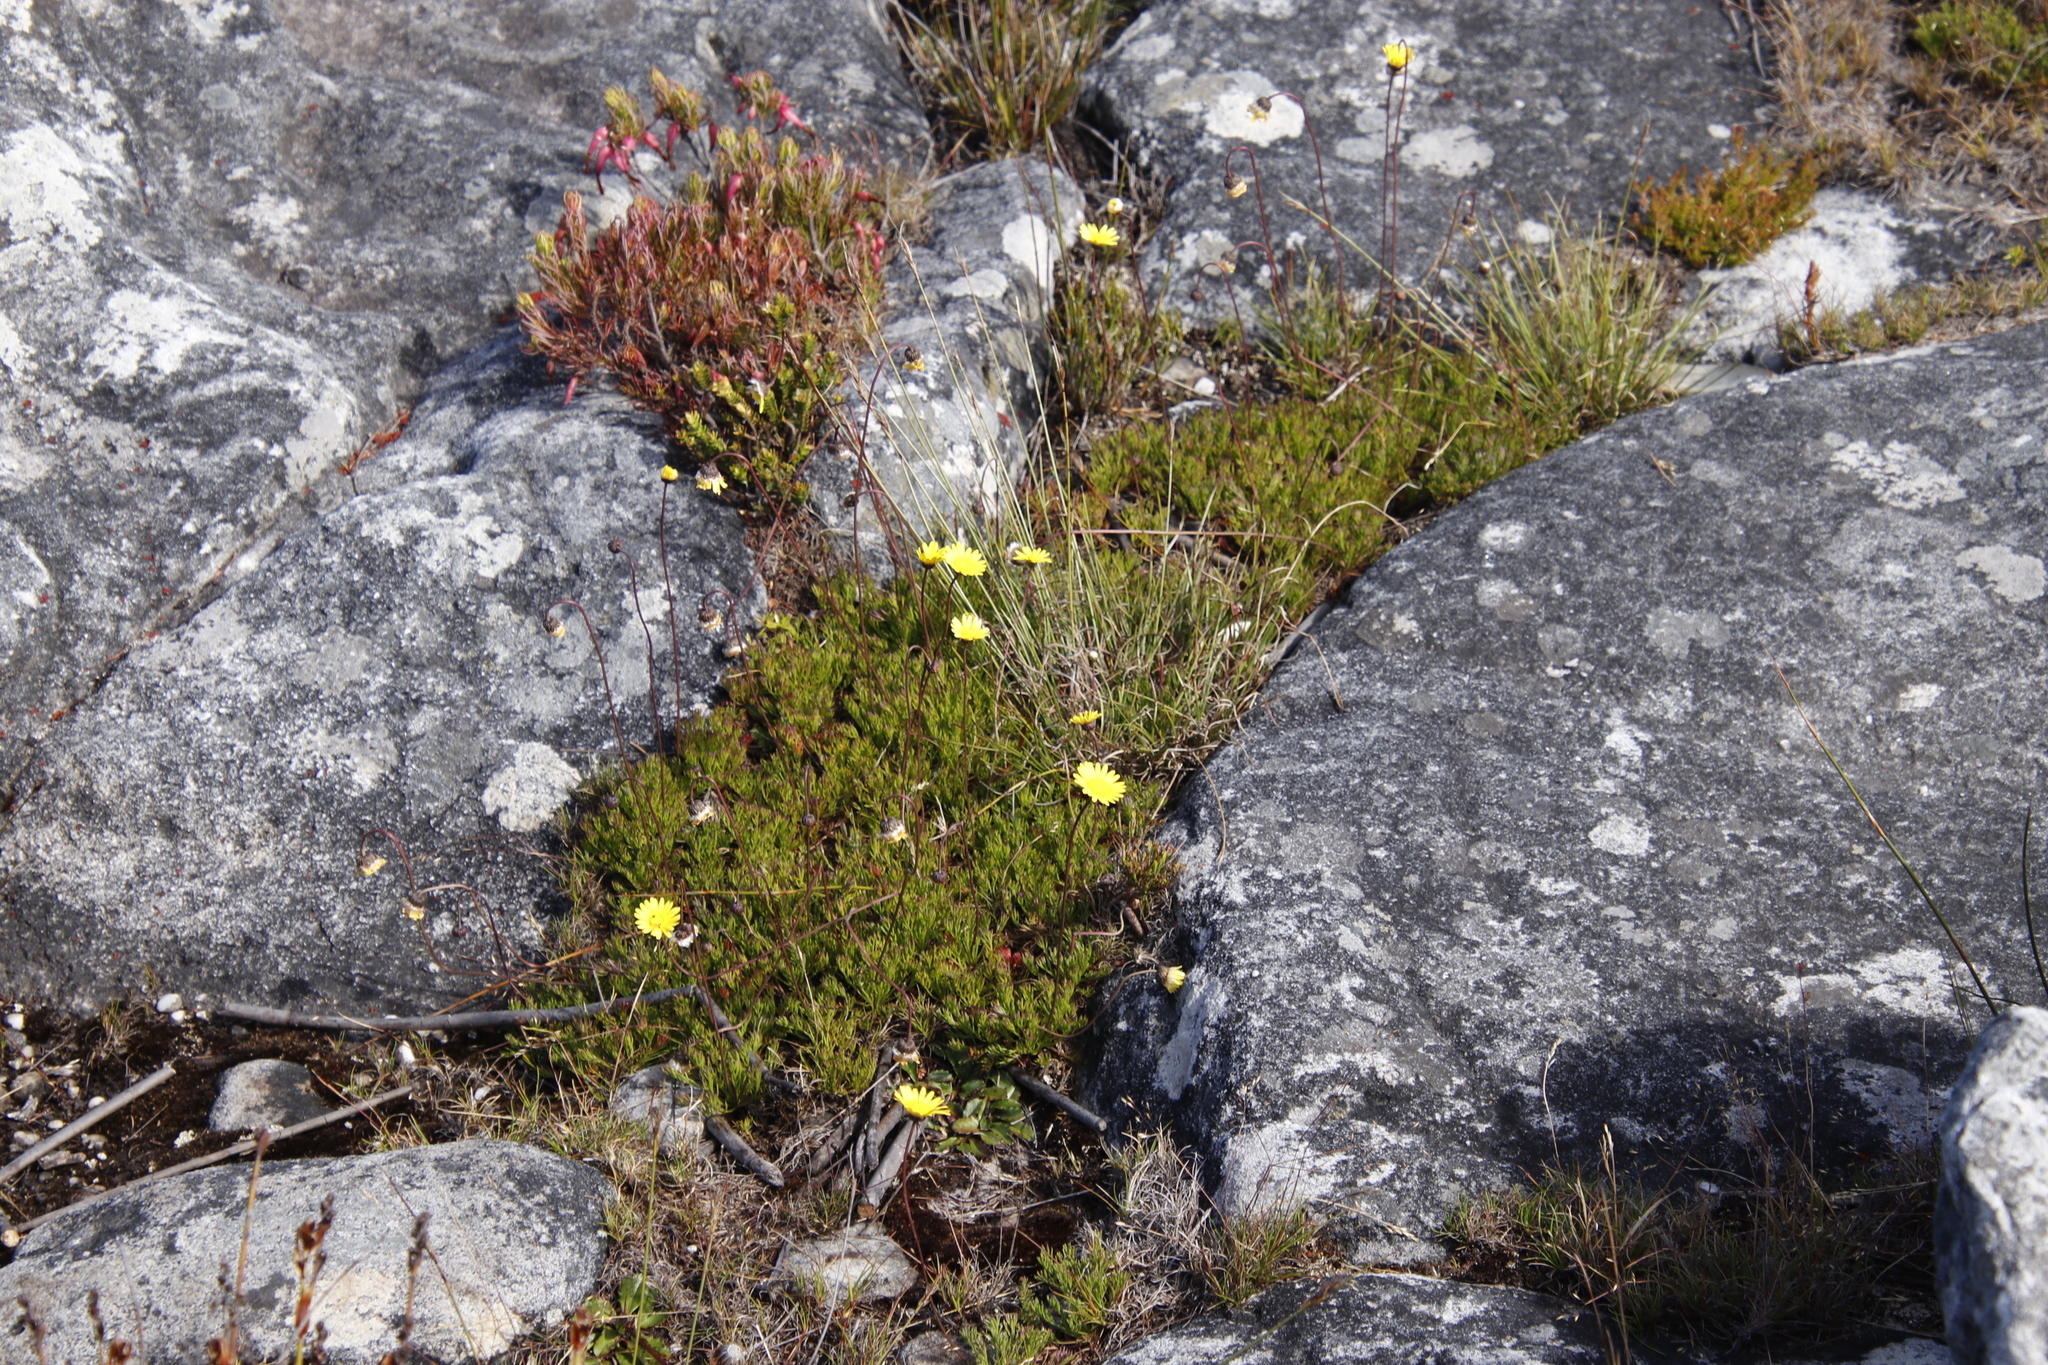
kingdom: Plantae
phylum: Tracheophyta
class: Magnoliopsida
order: Asterales
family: Asteraceae
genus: Ursinia
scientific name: Ursinia nudicaulis
